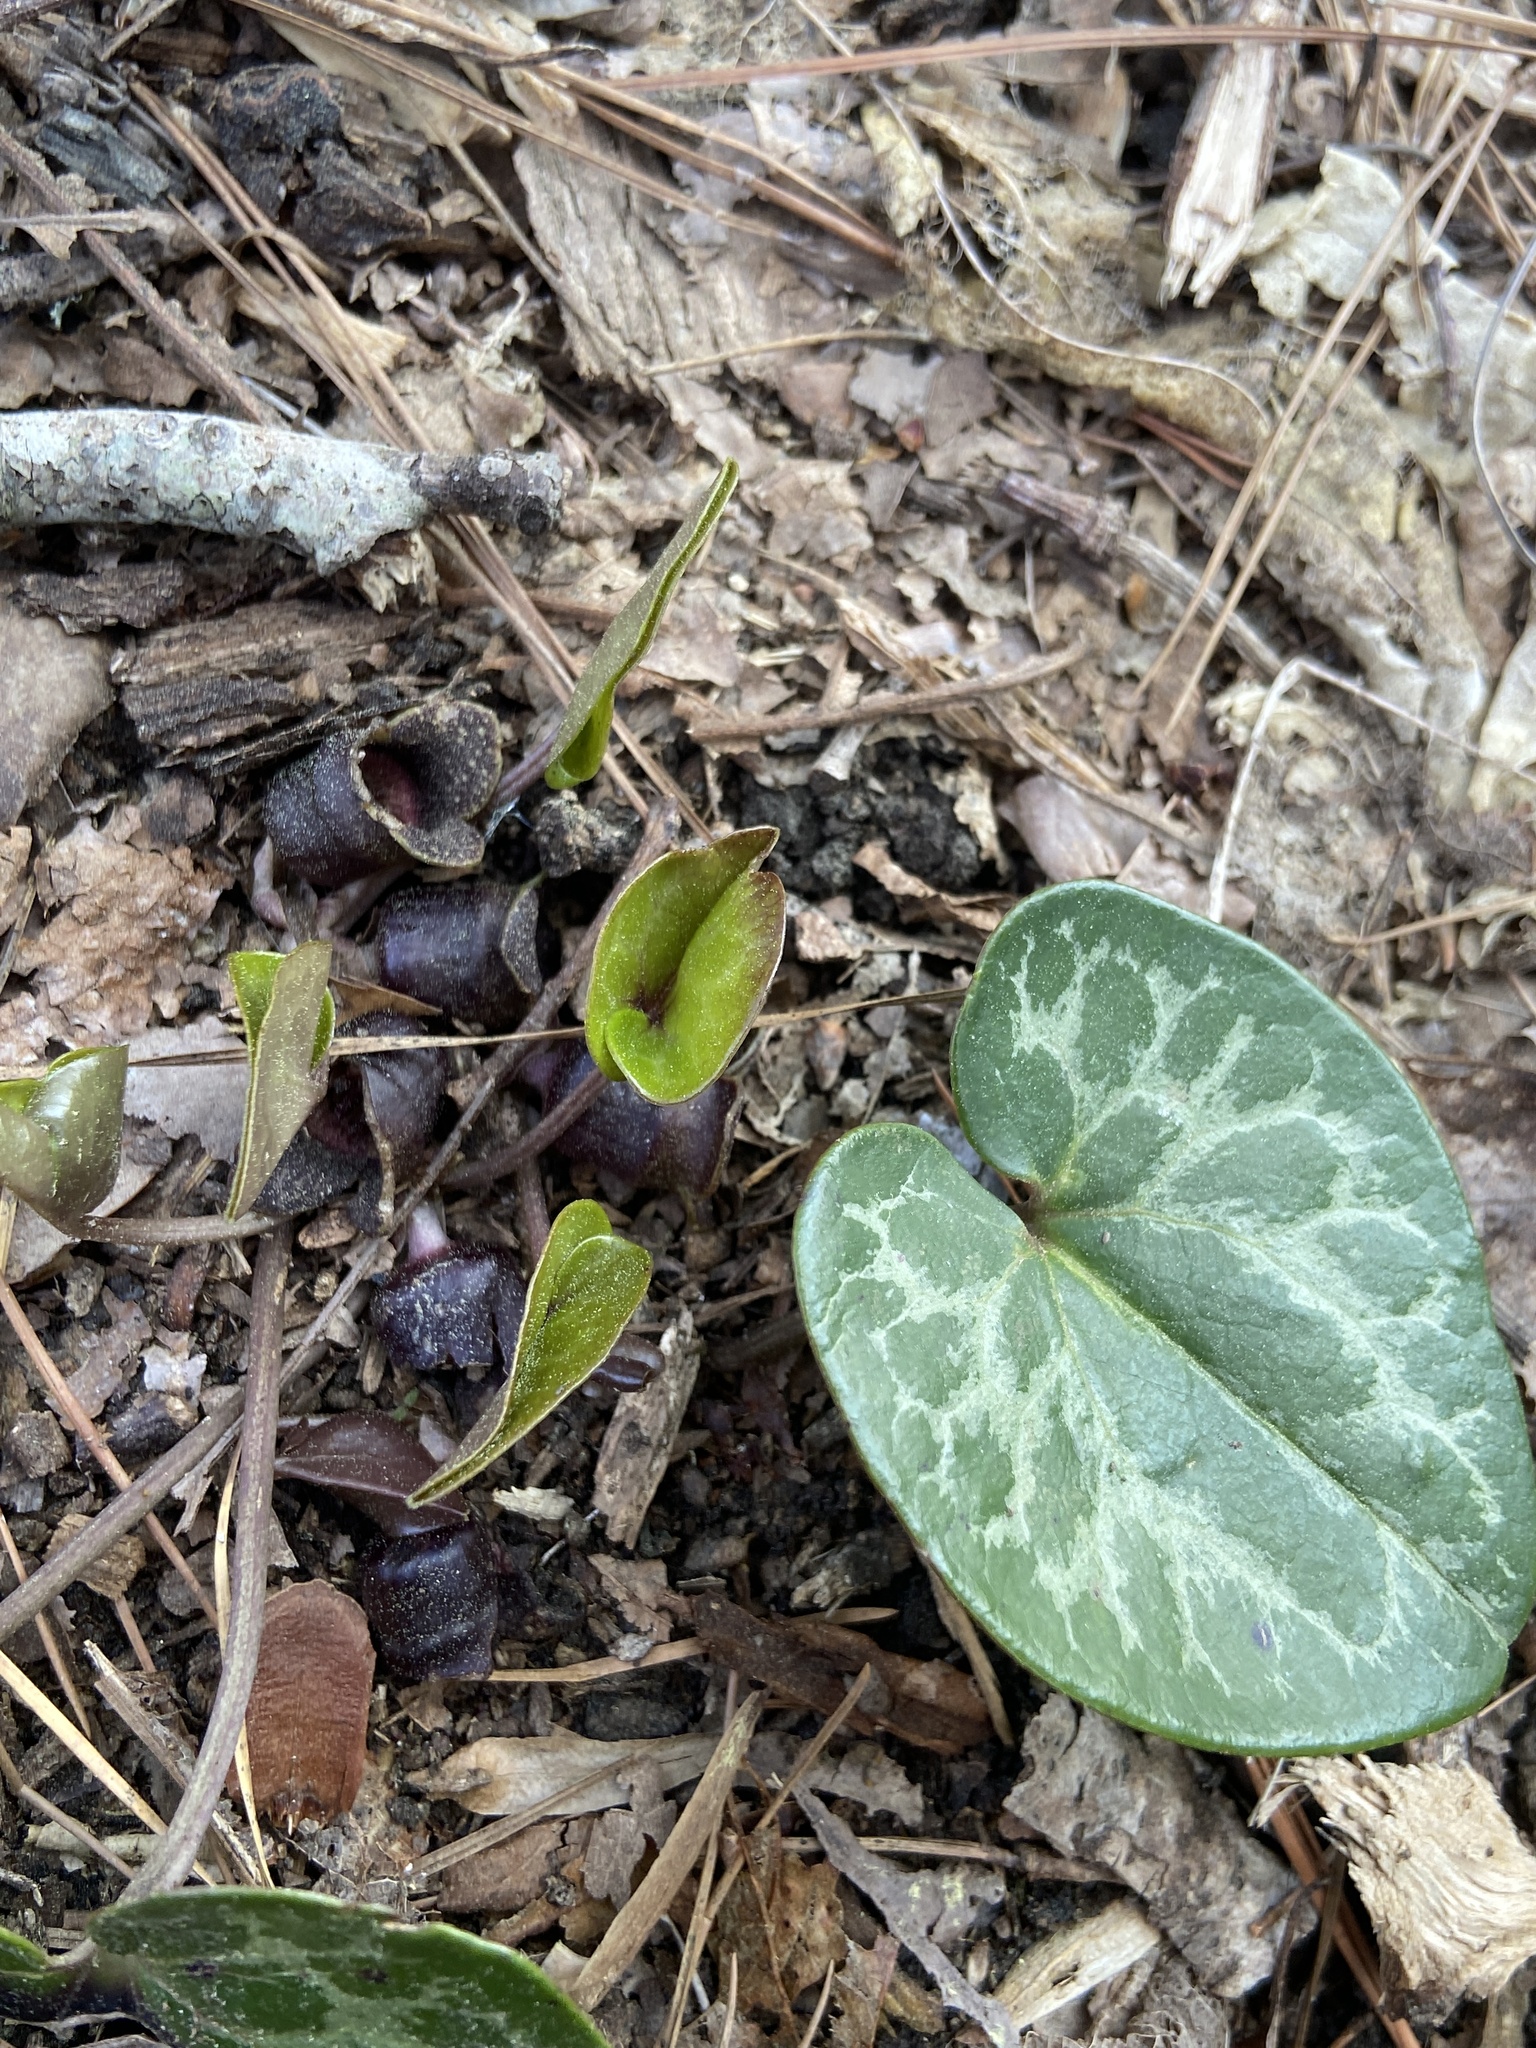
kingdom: Plantae
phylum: Tracheophyta
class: Magnoliopsida
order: Piperales
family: Aristolochiaceae
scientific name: Aristolochiaceae
